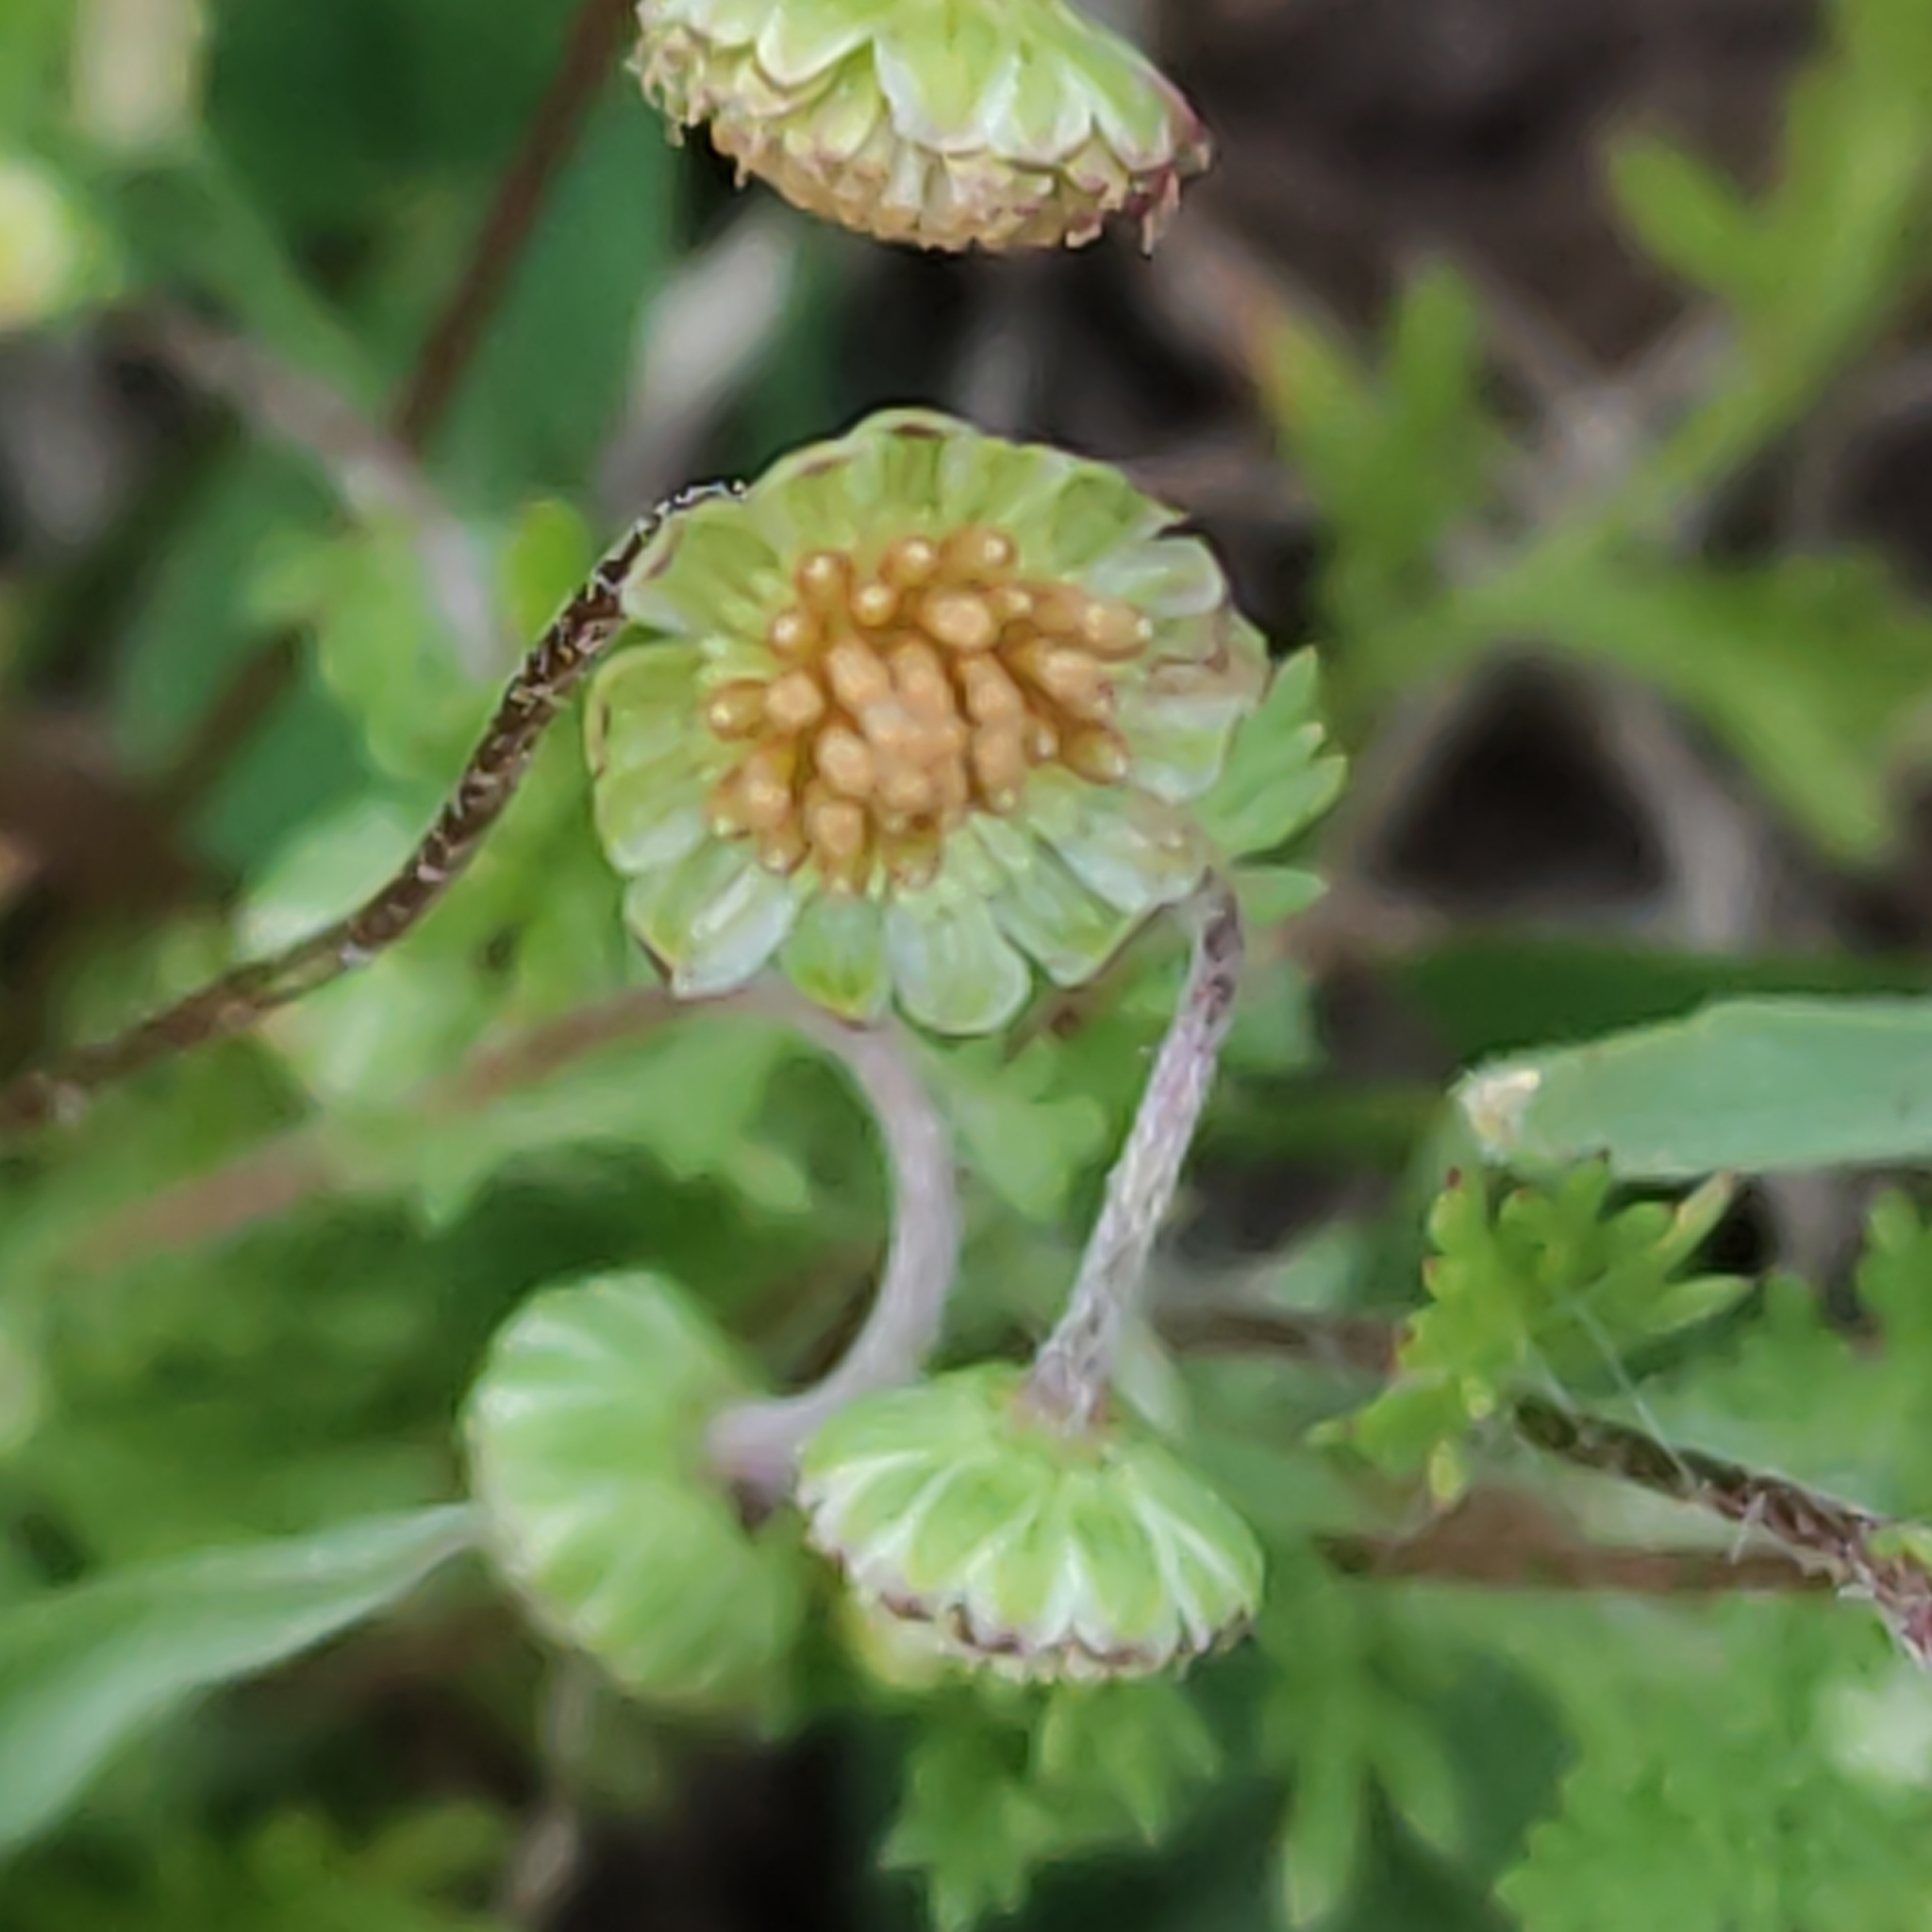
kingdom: Plantae
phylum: Tracheophyta
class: Magnoliopsida
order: Asterales
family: Asteraceae
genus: Cotula
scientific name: Cotula australis
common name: Australian waterbuttons
